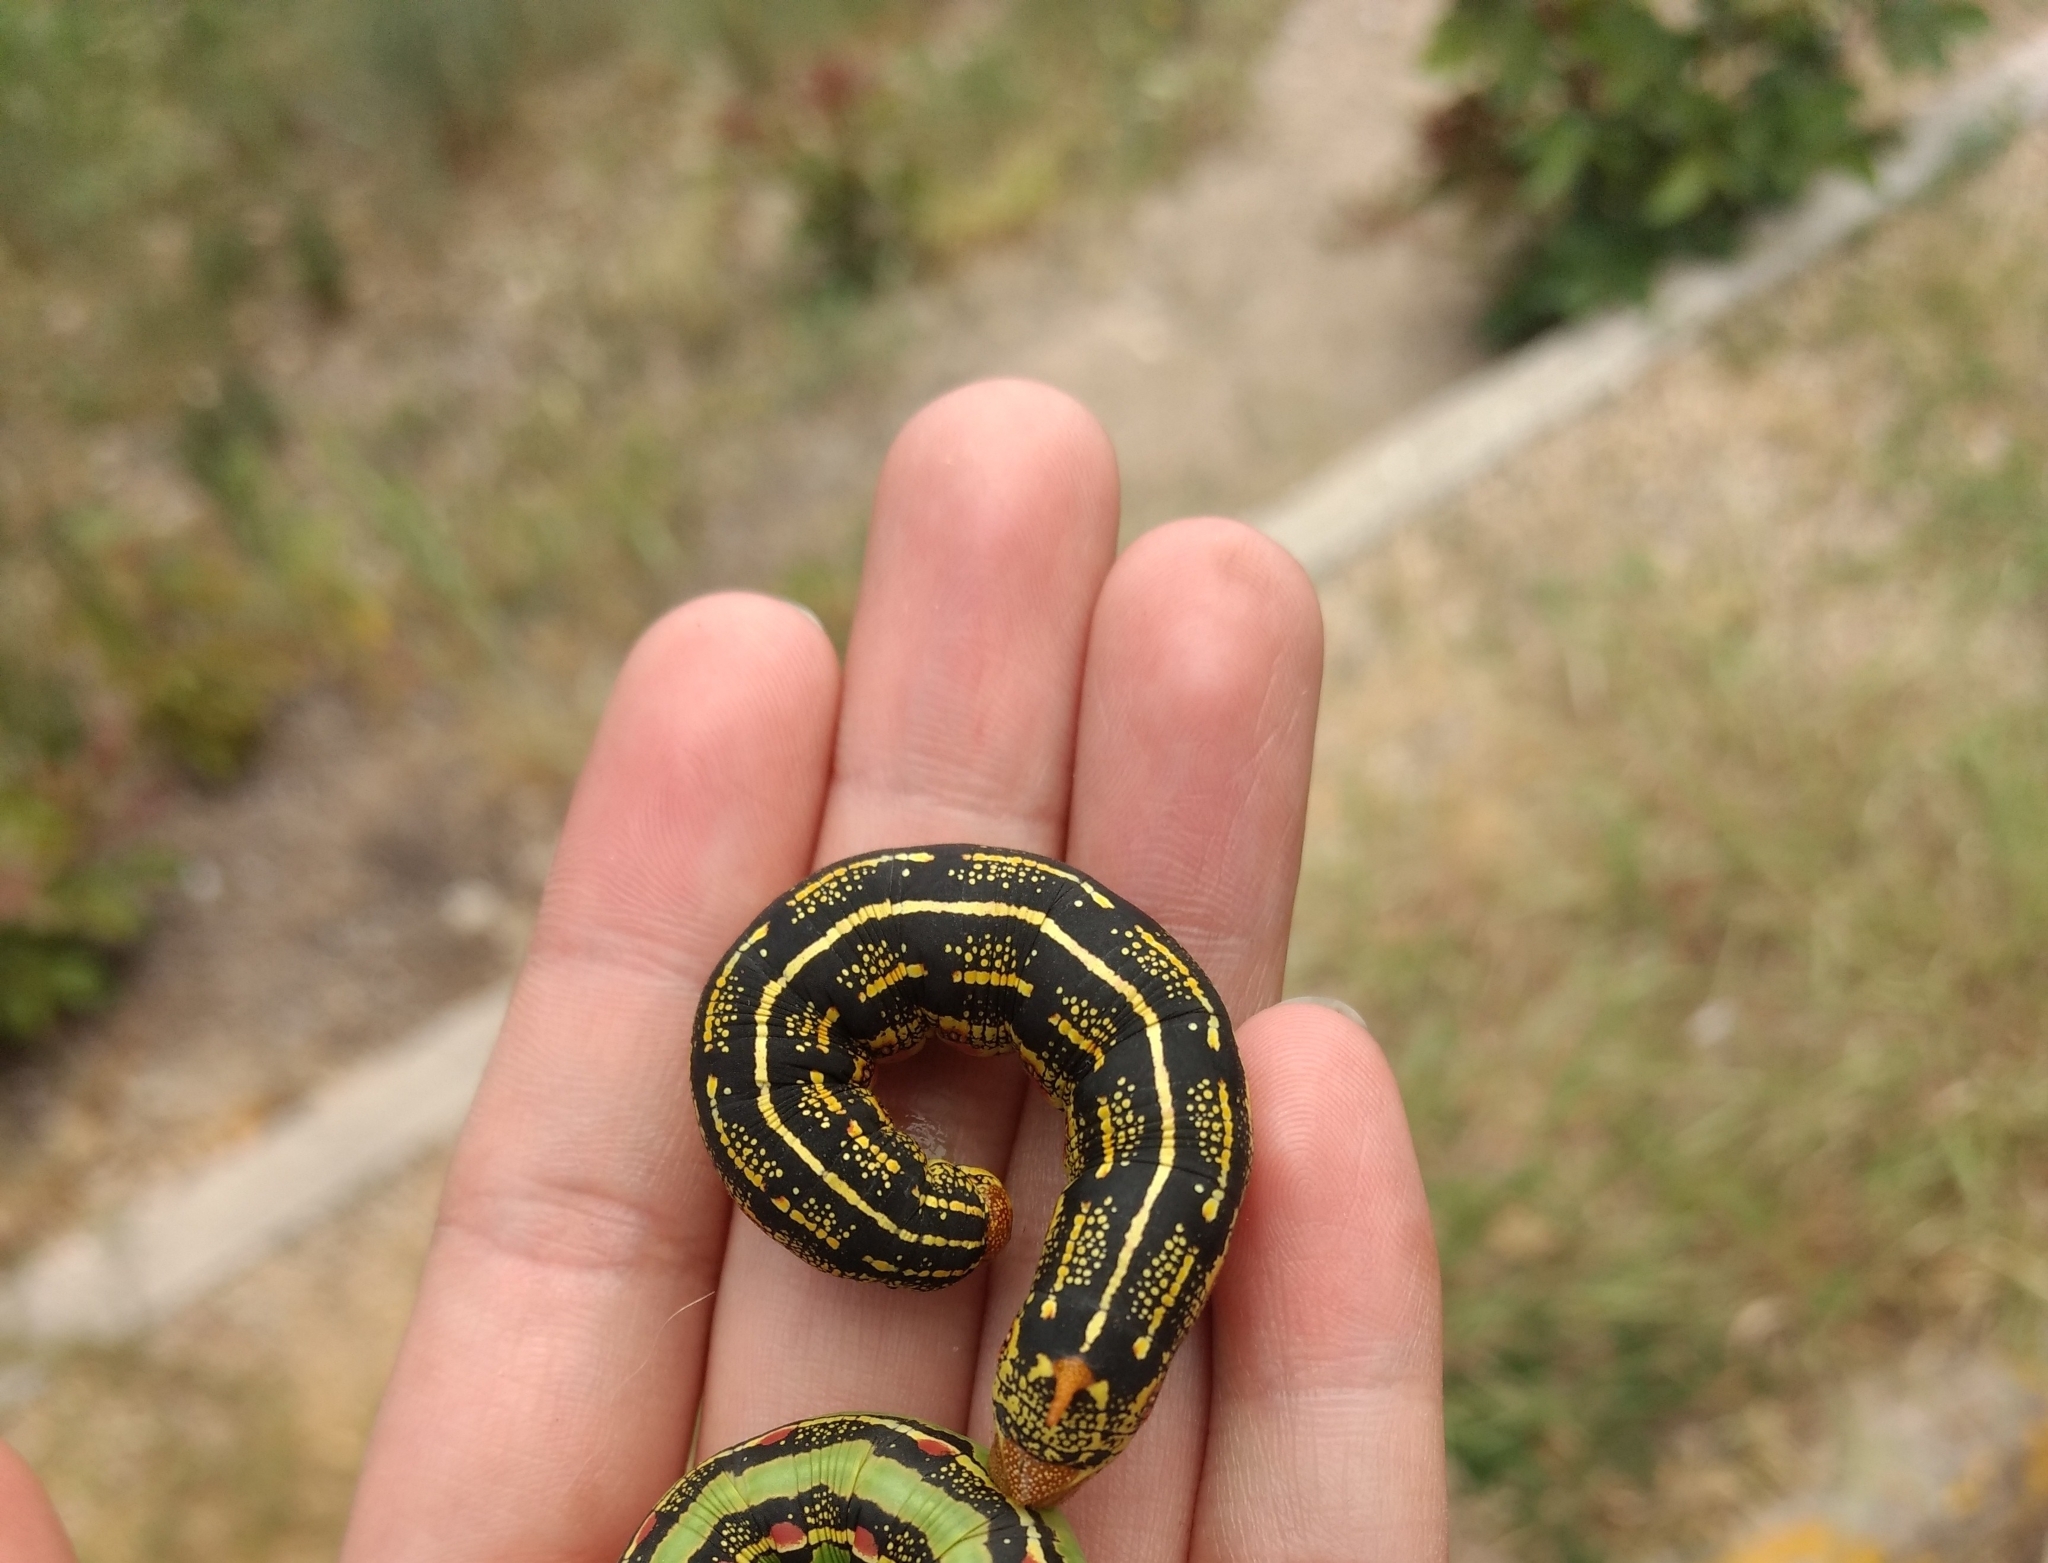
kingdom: Animalia
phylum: Arthropoda
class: Insecta
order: Lepidoptera
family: Sphingidae
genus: Hyles
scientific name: Hyles lineata
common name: White-lined sphinx
